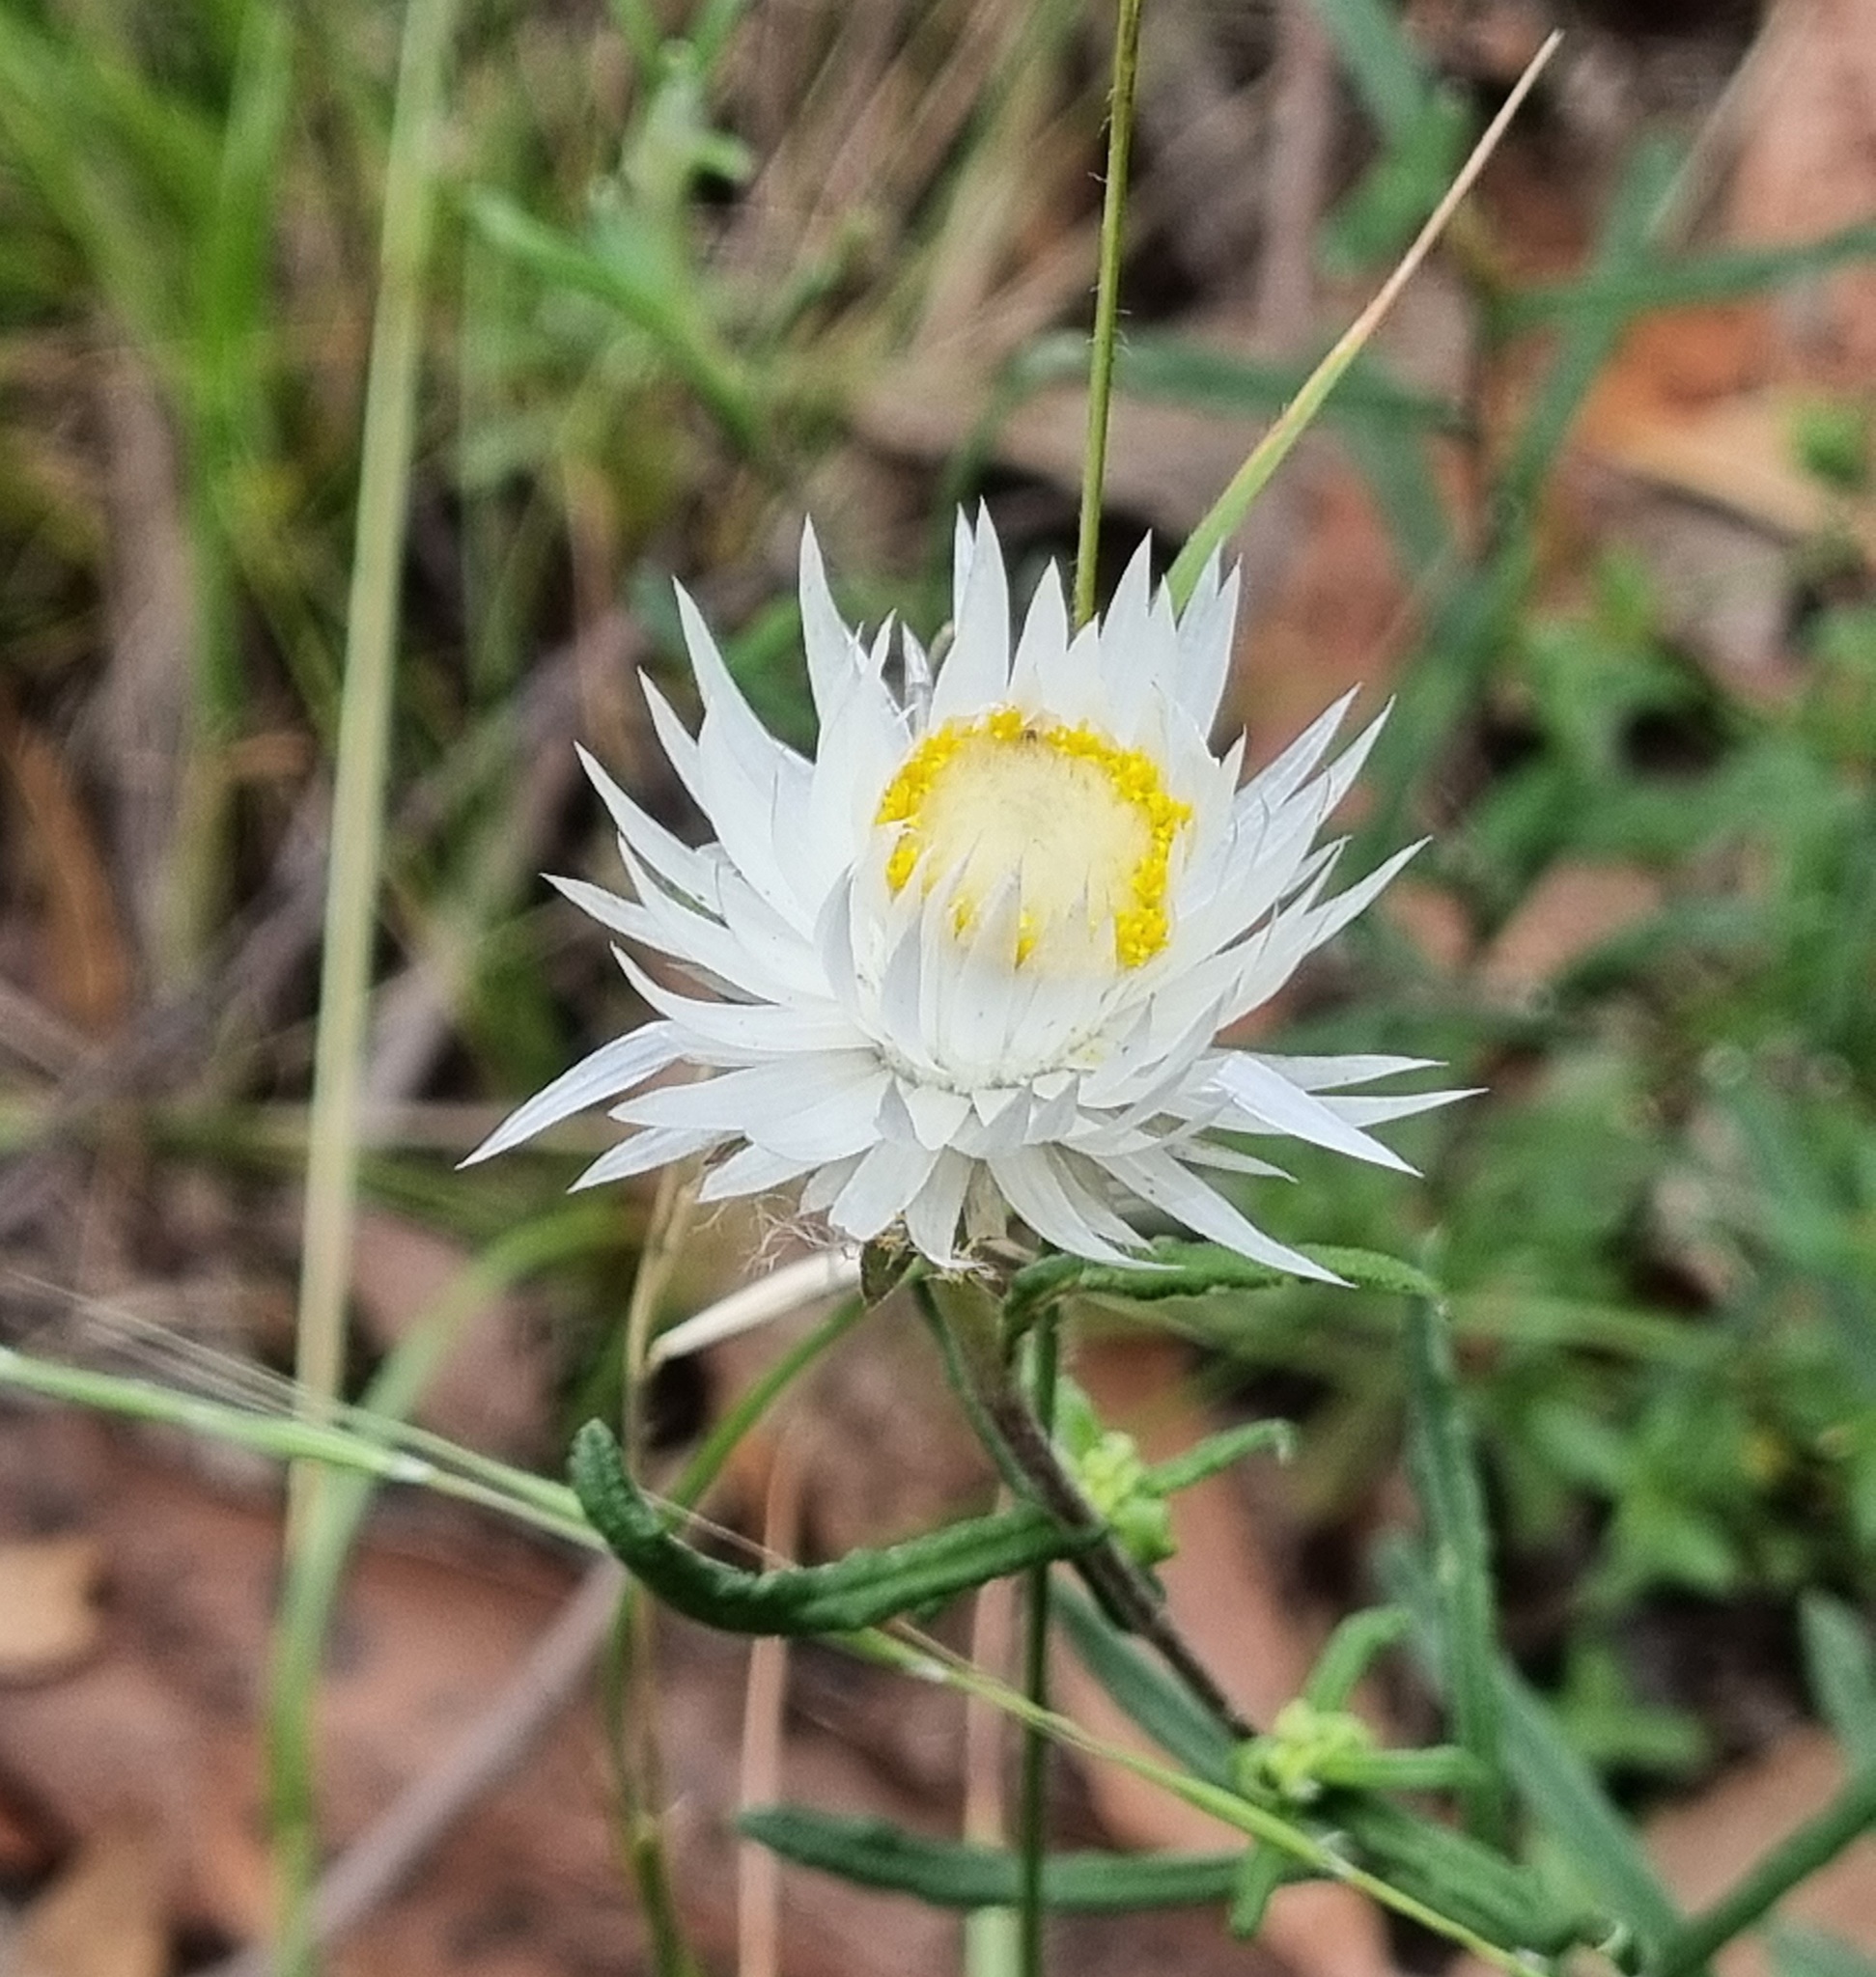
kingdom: Plantae
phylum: Tracheophyta
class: Magnoliopsida
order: Asterales
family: Asteraceae
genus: Helichrysum
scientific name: Helichrysum leucopsideum
